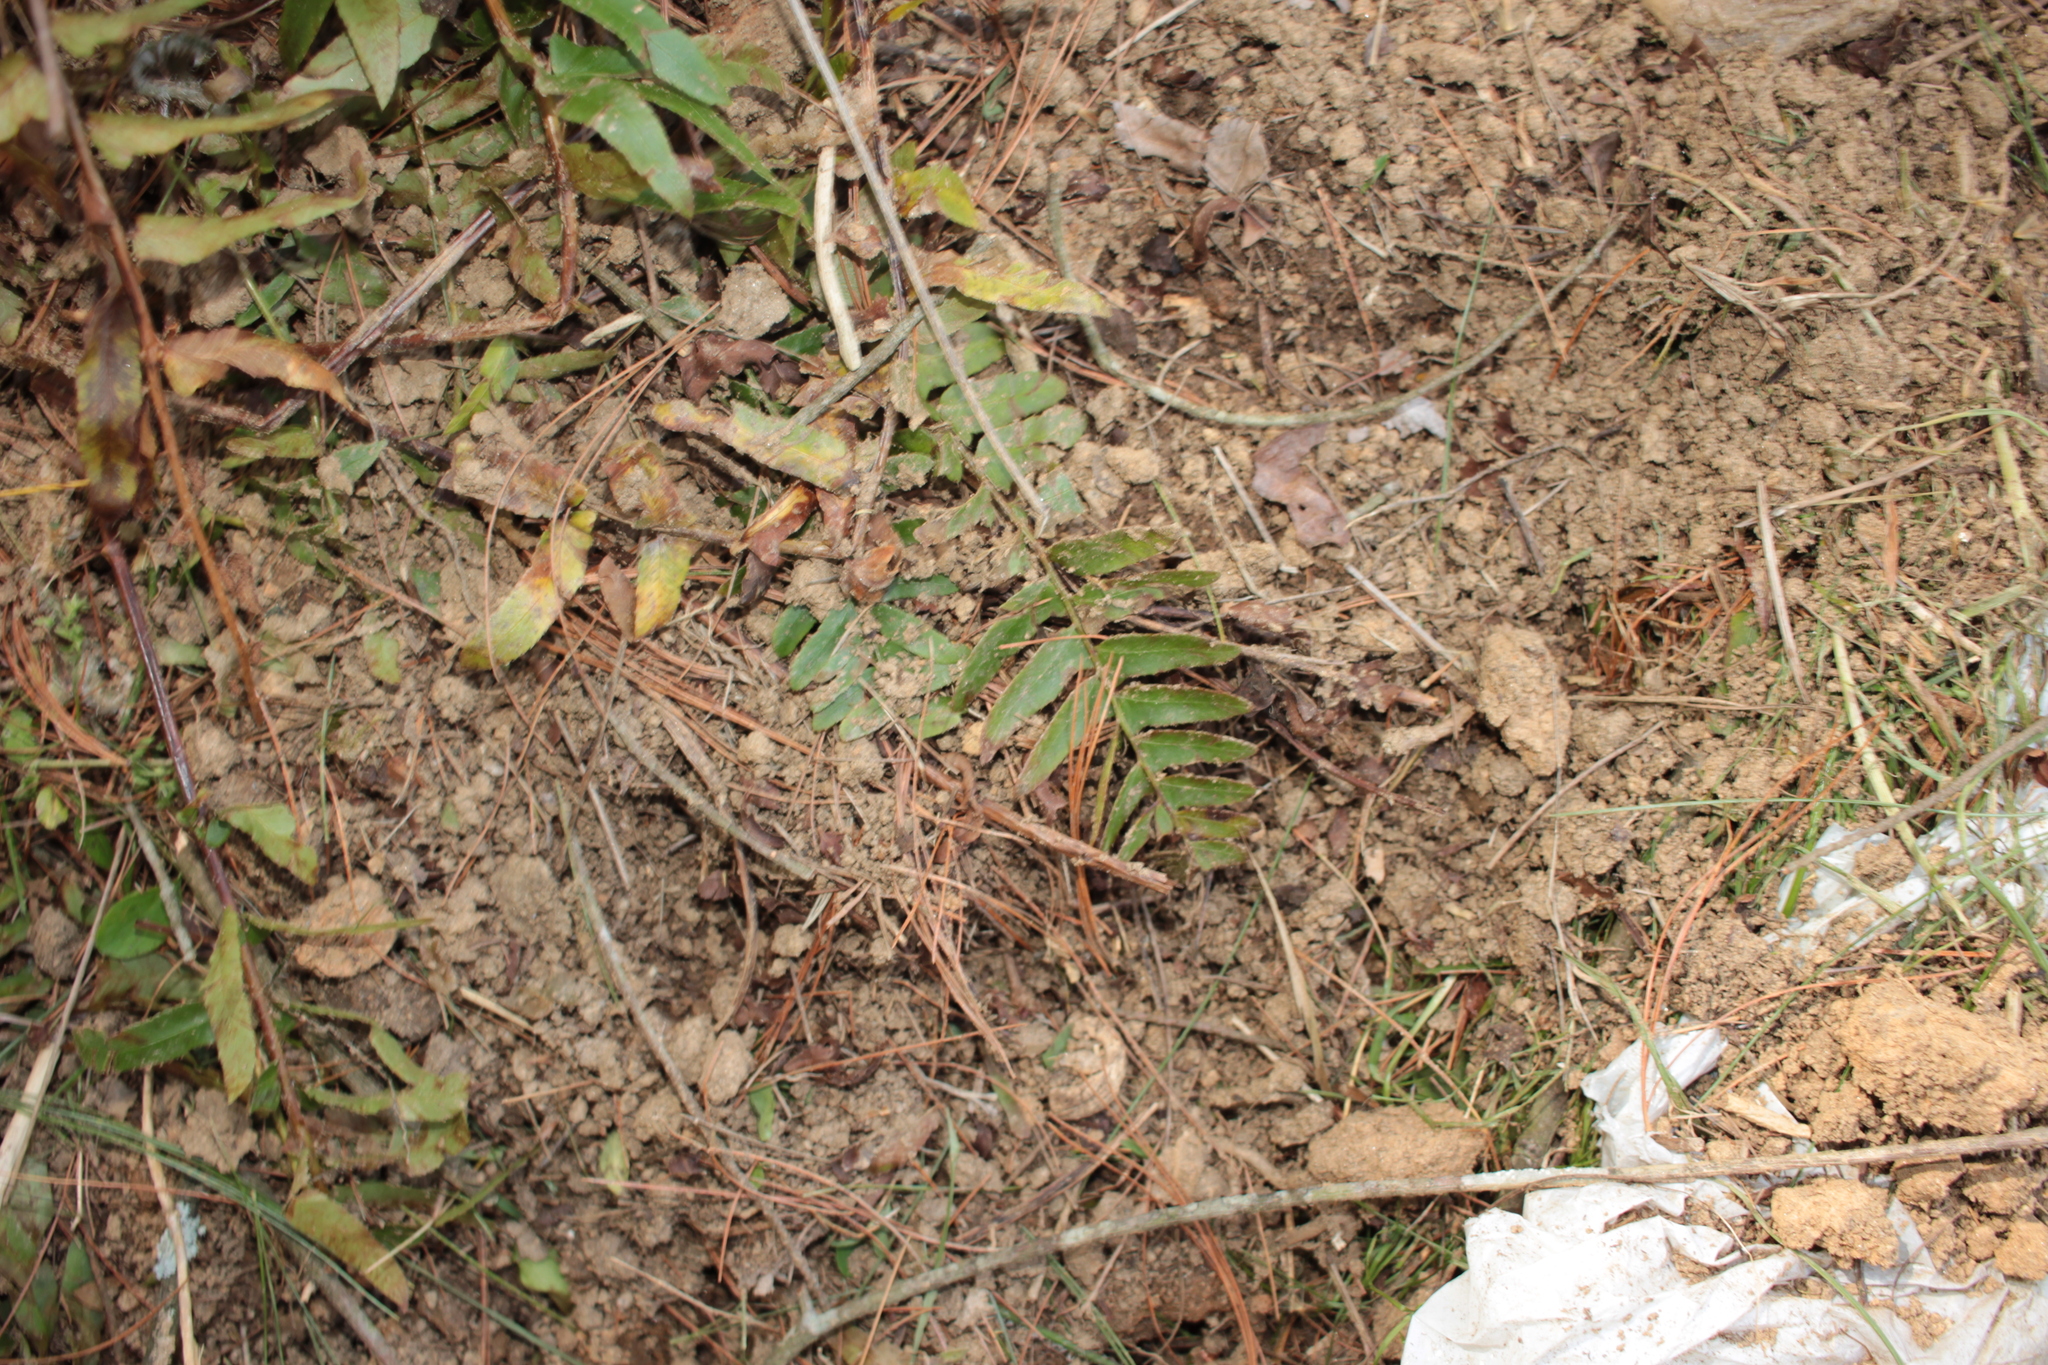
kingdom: Plantae
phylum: Tracheophyta
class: Polypodiopsida
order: Polypodiales
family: Dryopteridaceae
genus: Polystichum
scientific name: Polystichum acrostichoides
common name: Christmas fern
